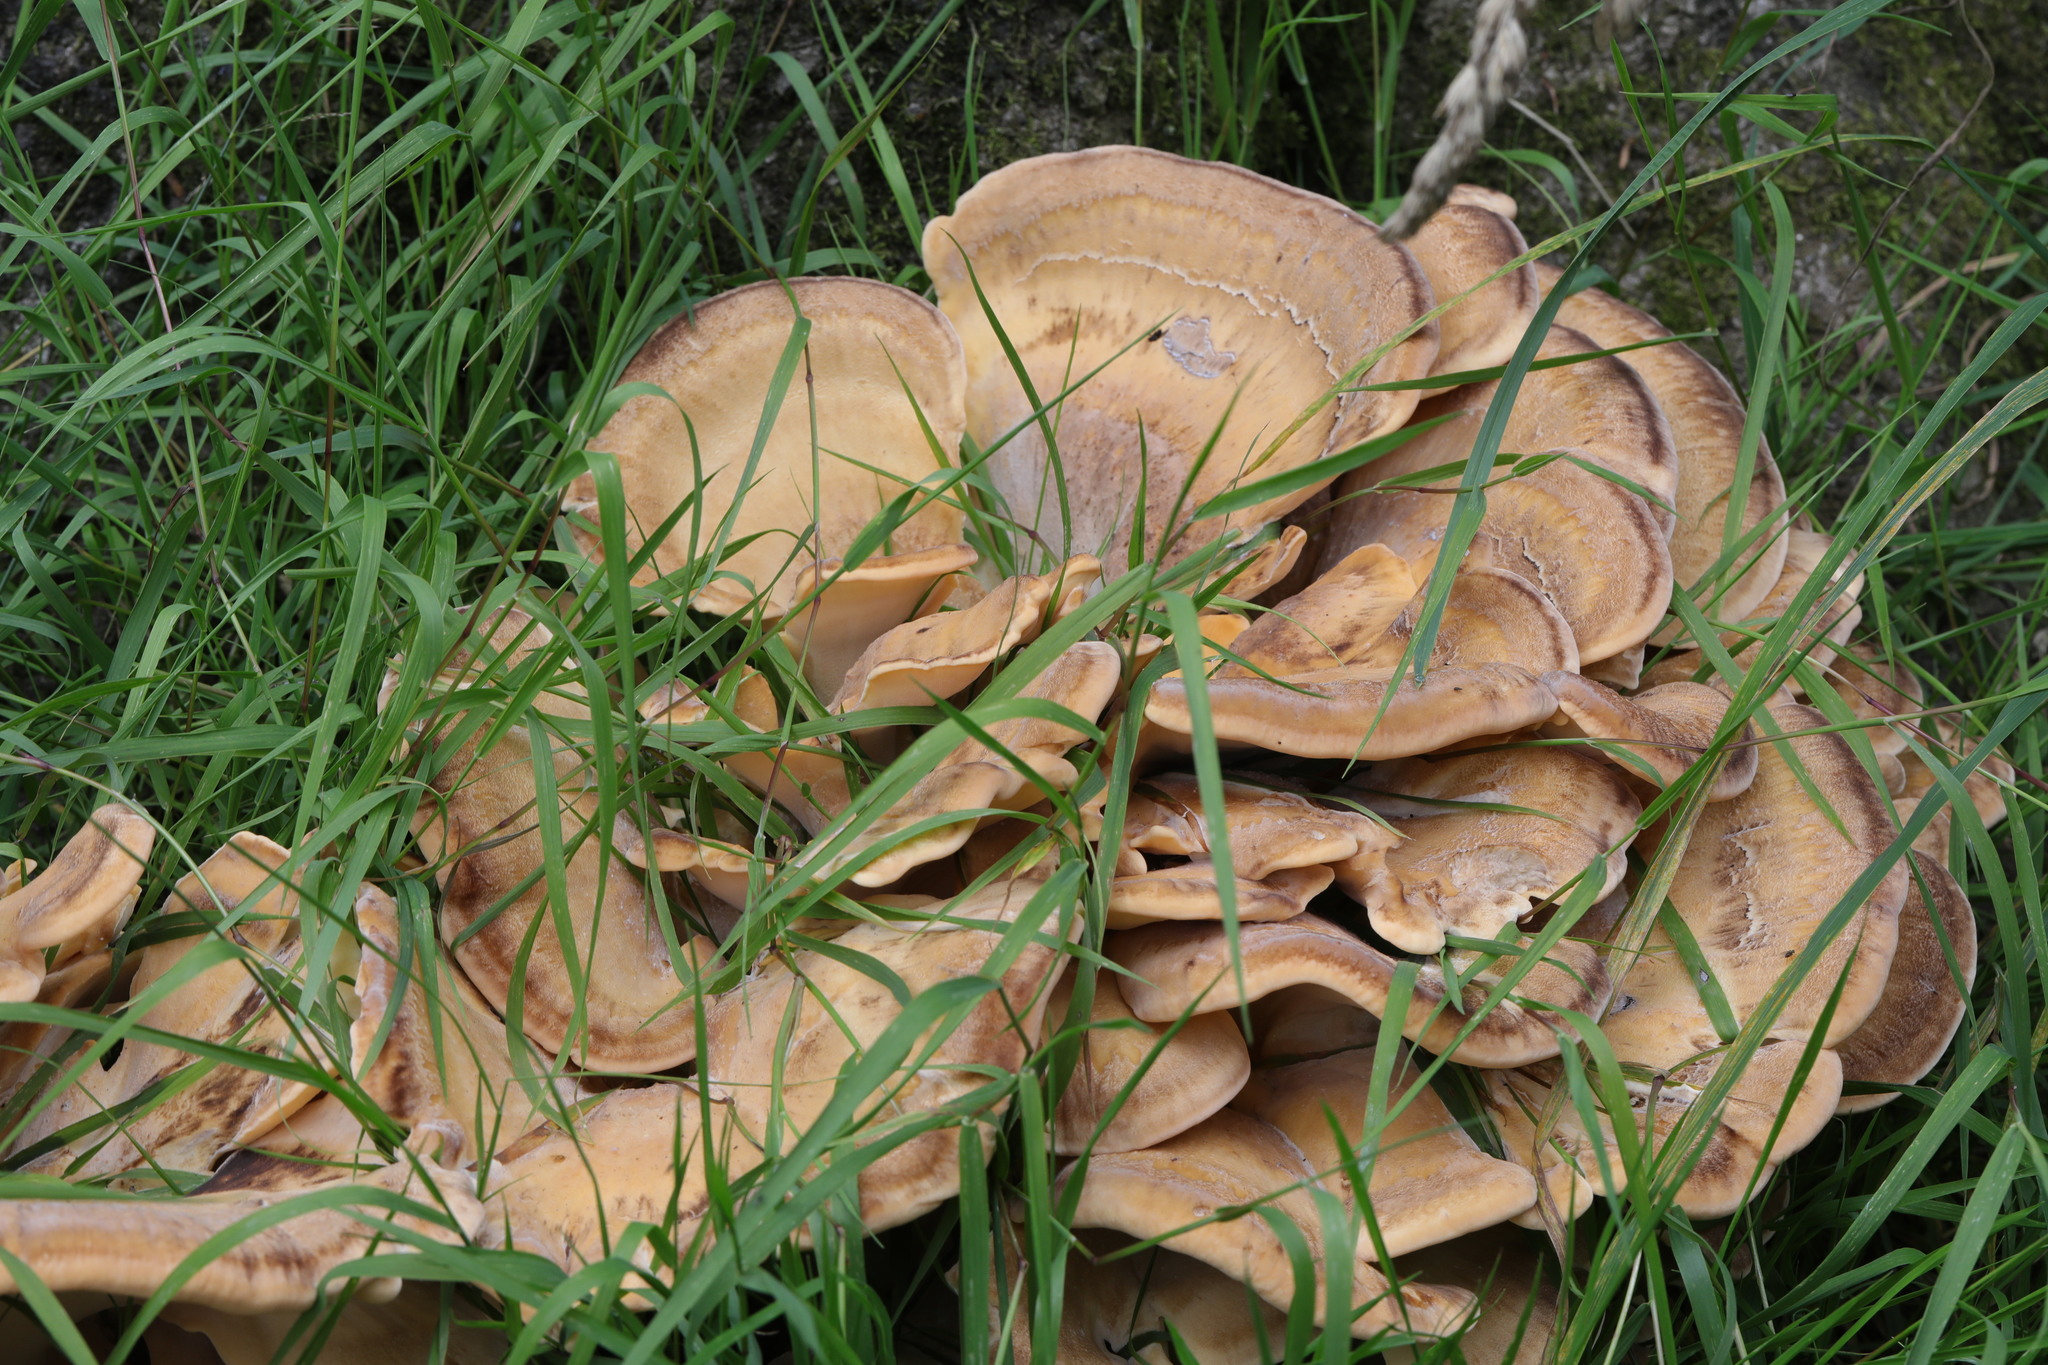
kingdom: Fungi
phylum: Basidiomycota
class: Agaricomycetes
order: Polyporales
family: Meripilaceae
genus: Meripilus
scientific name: Meripilus giganteus
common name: Giant polypore
